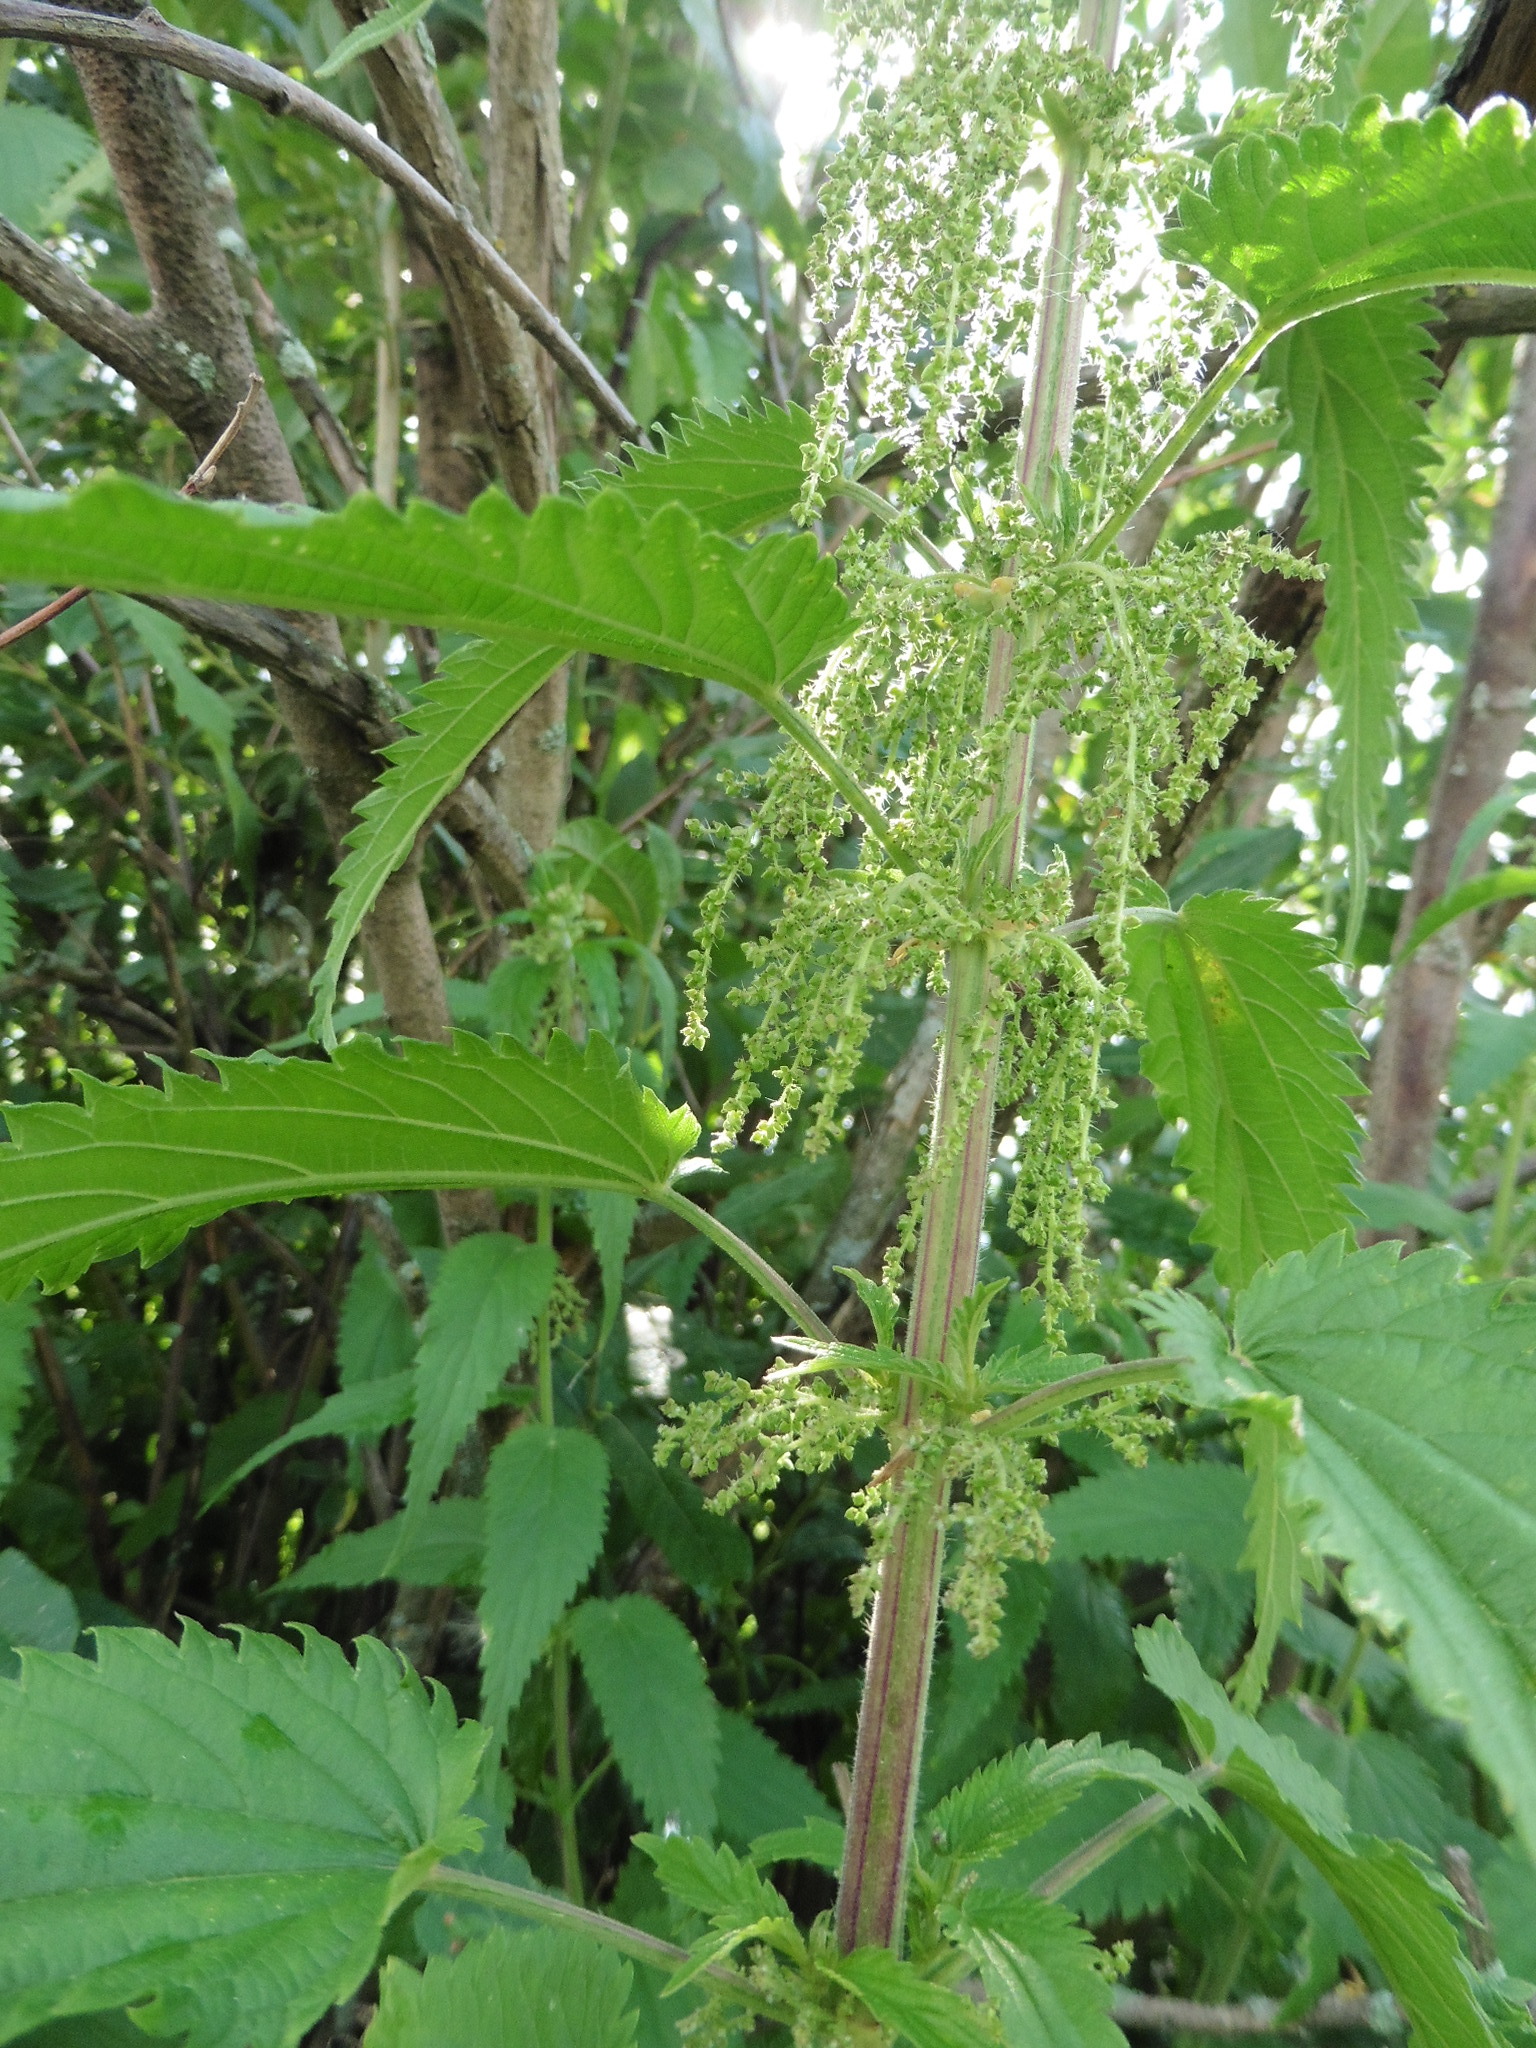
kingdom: Plantae
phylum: Tracheophyta
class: Magnoliopsida
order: Rosales
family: Urticaceae
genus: Urtica
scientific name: Urtica dioica
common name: Common nettle
